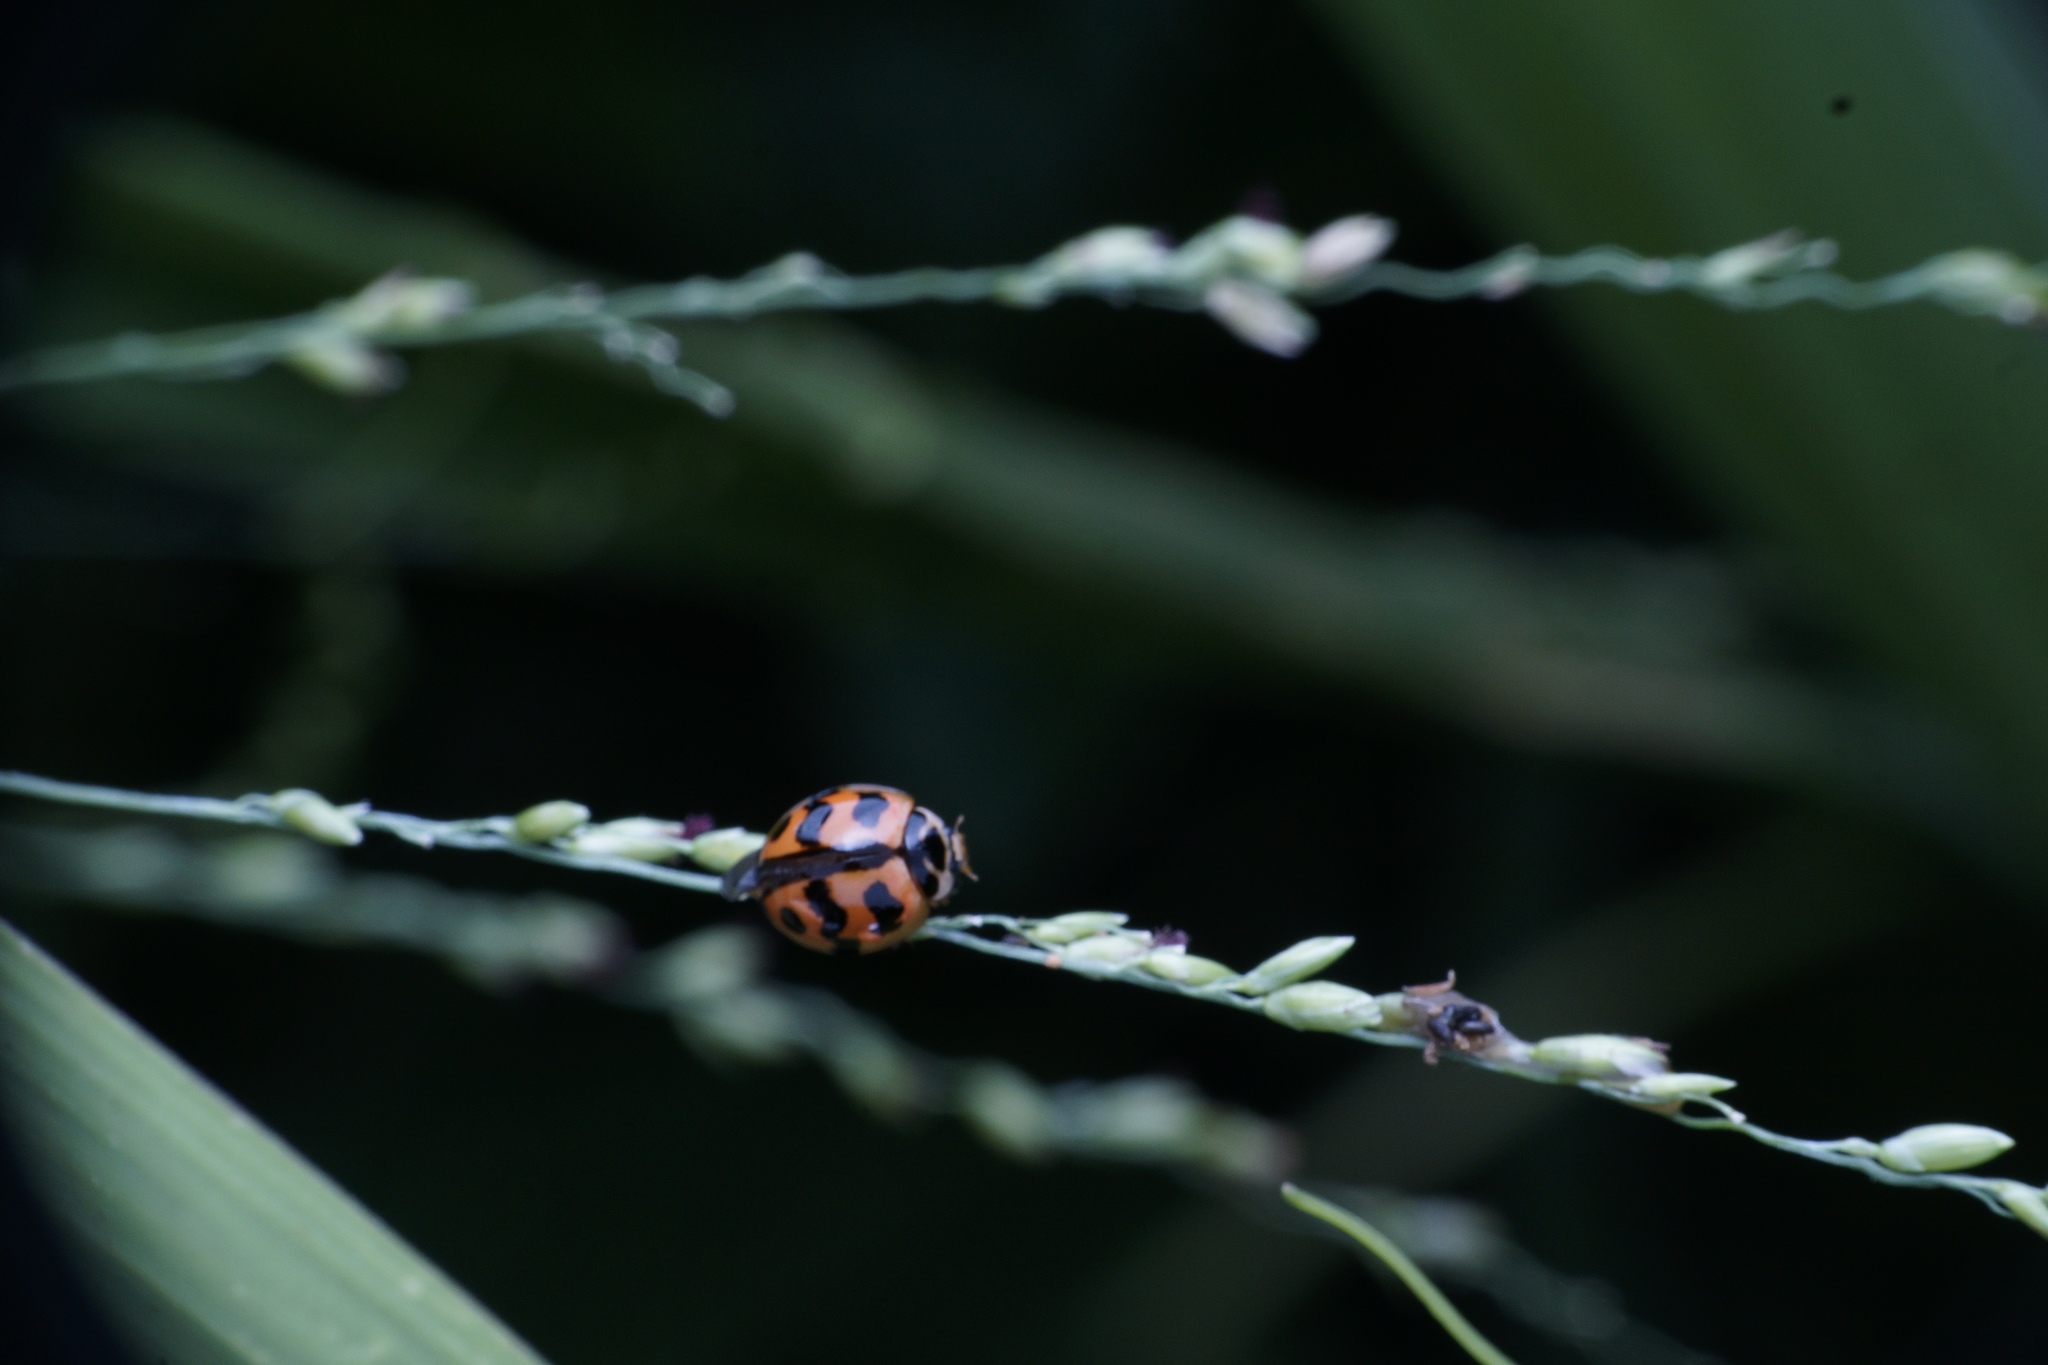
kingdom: Animalia
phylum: Arthropoda
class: Insecta
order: Coleoptera
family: Coccinellidae
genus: Cheilomenes
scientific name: Cheilomenes sexmaculata
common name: Ladybird beetle
